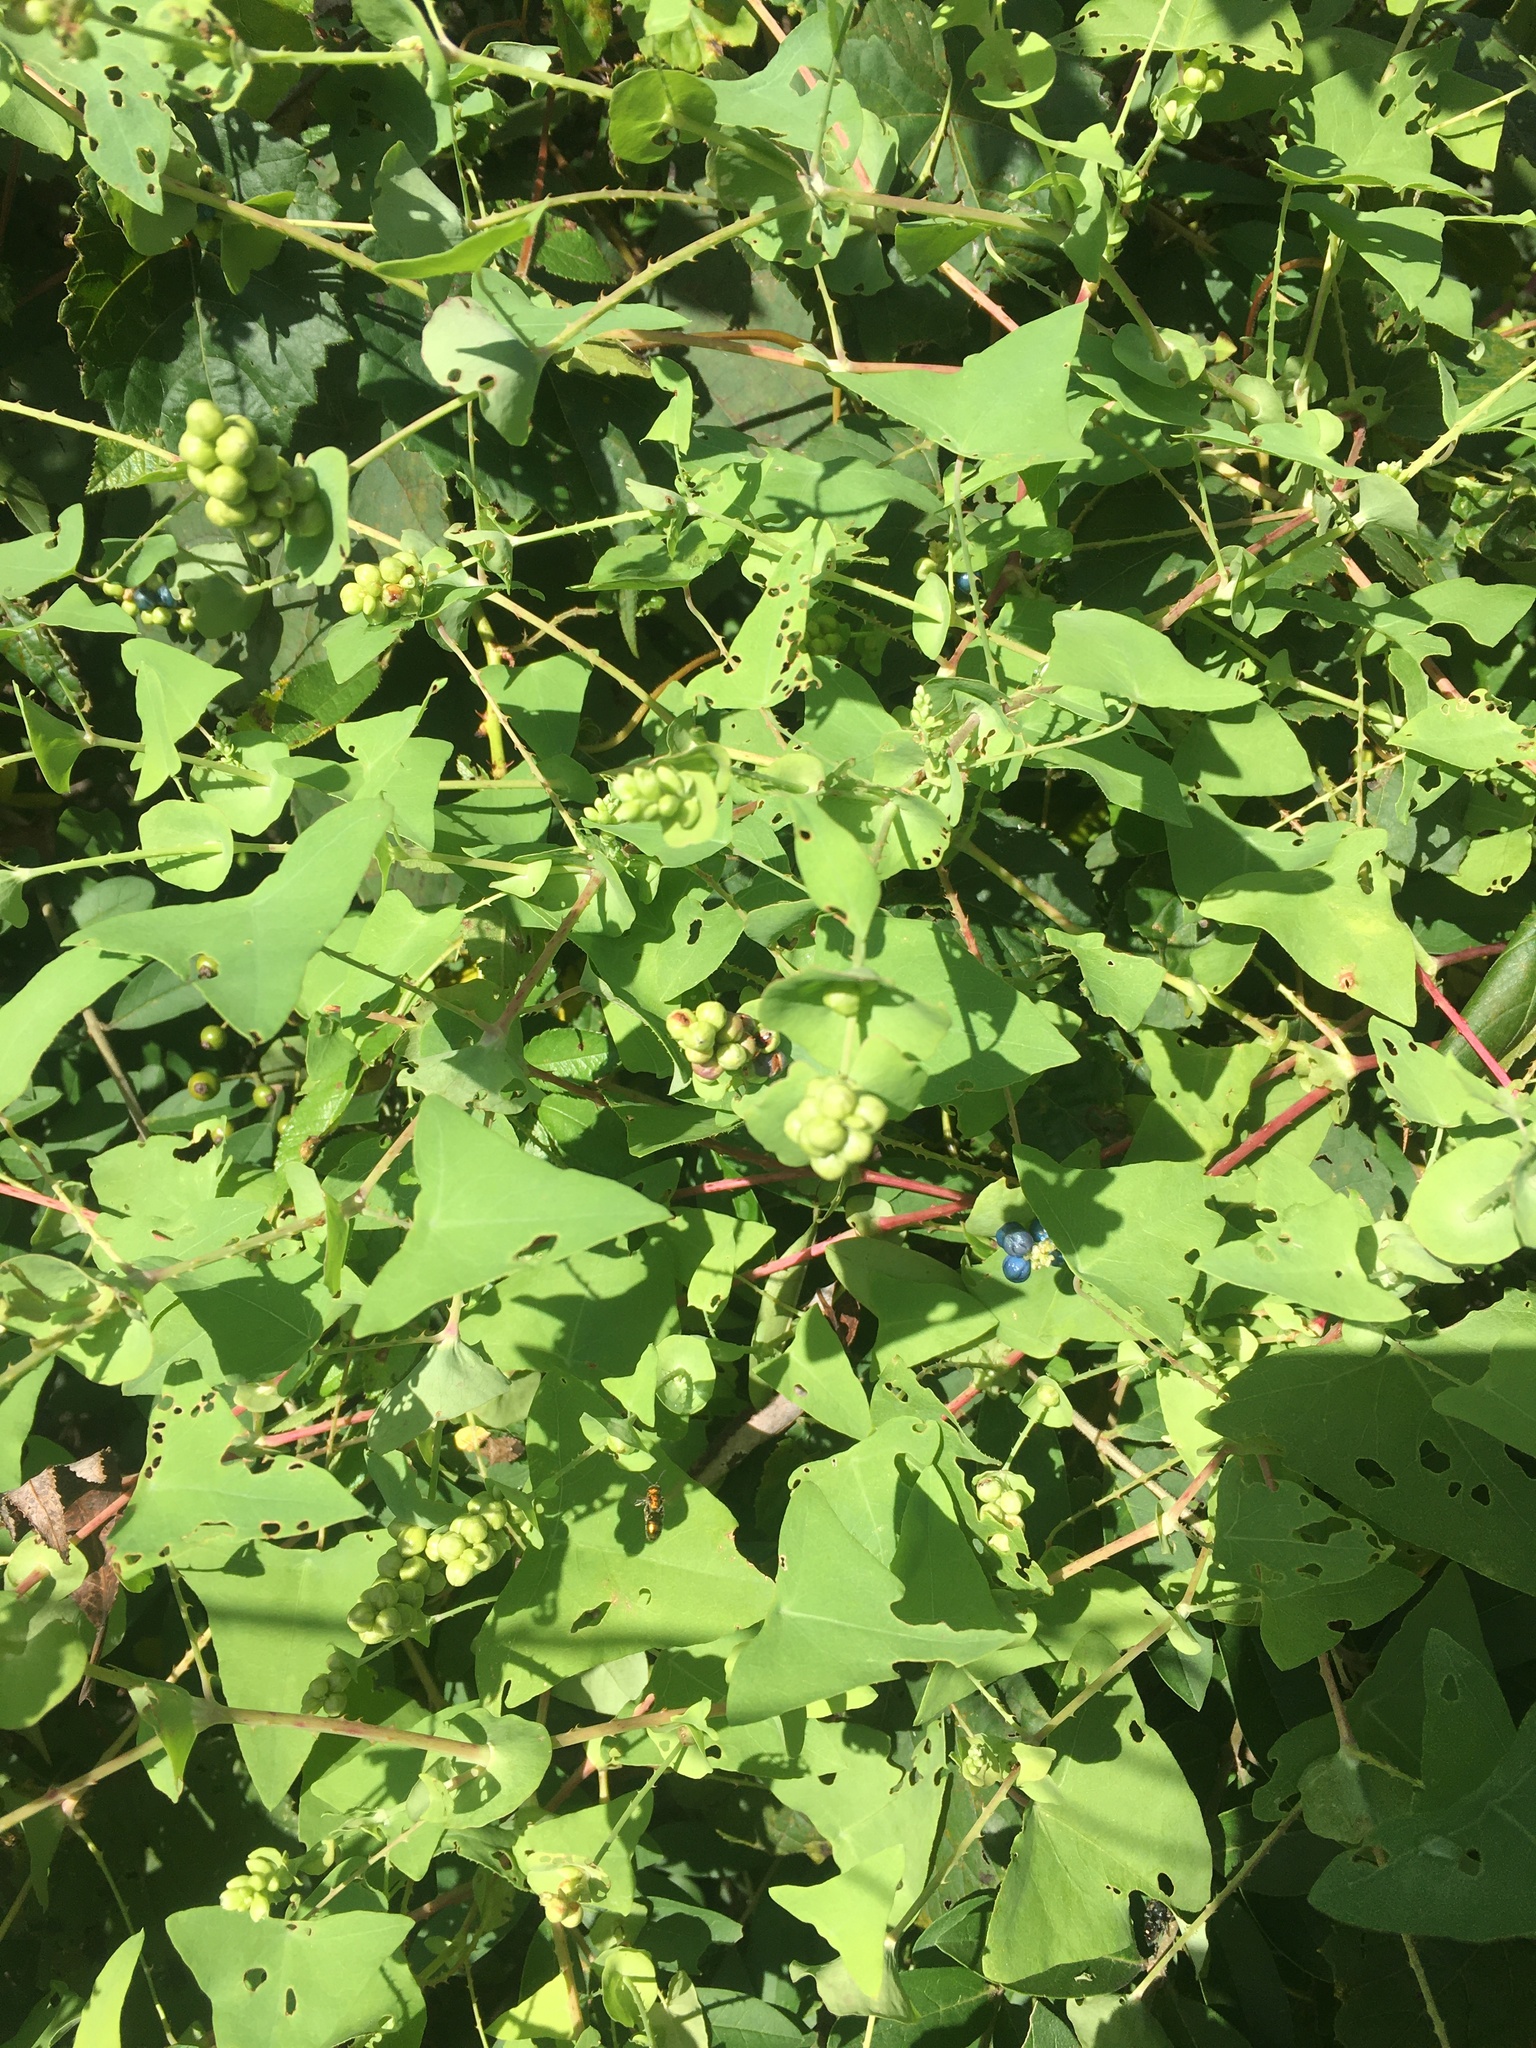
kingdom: Plantae
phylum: Tracheophyta
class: Magnoliopsida
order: Caryophyllales
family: Polygonaceae
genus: Persicaria
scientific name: Persicaria perfoliata
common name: Asiatic tearthumb
